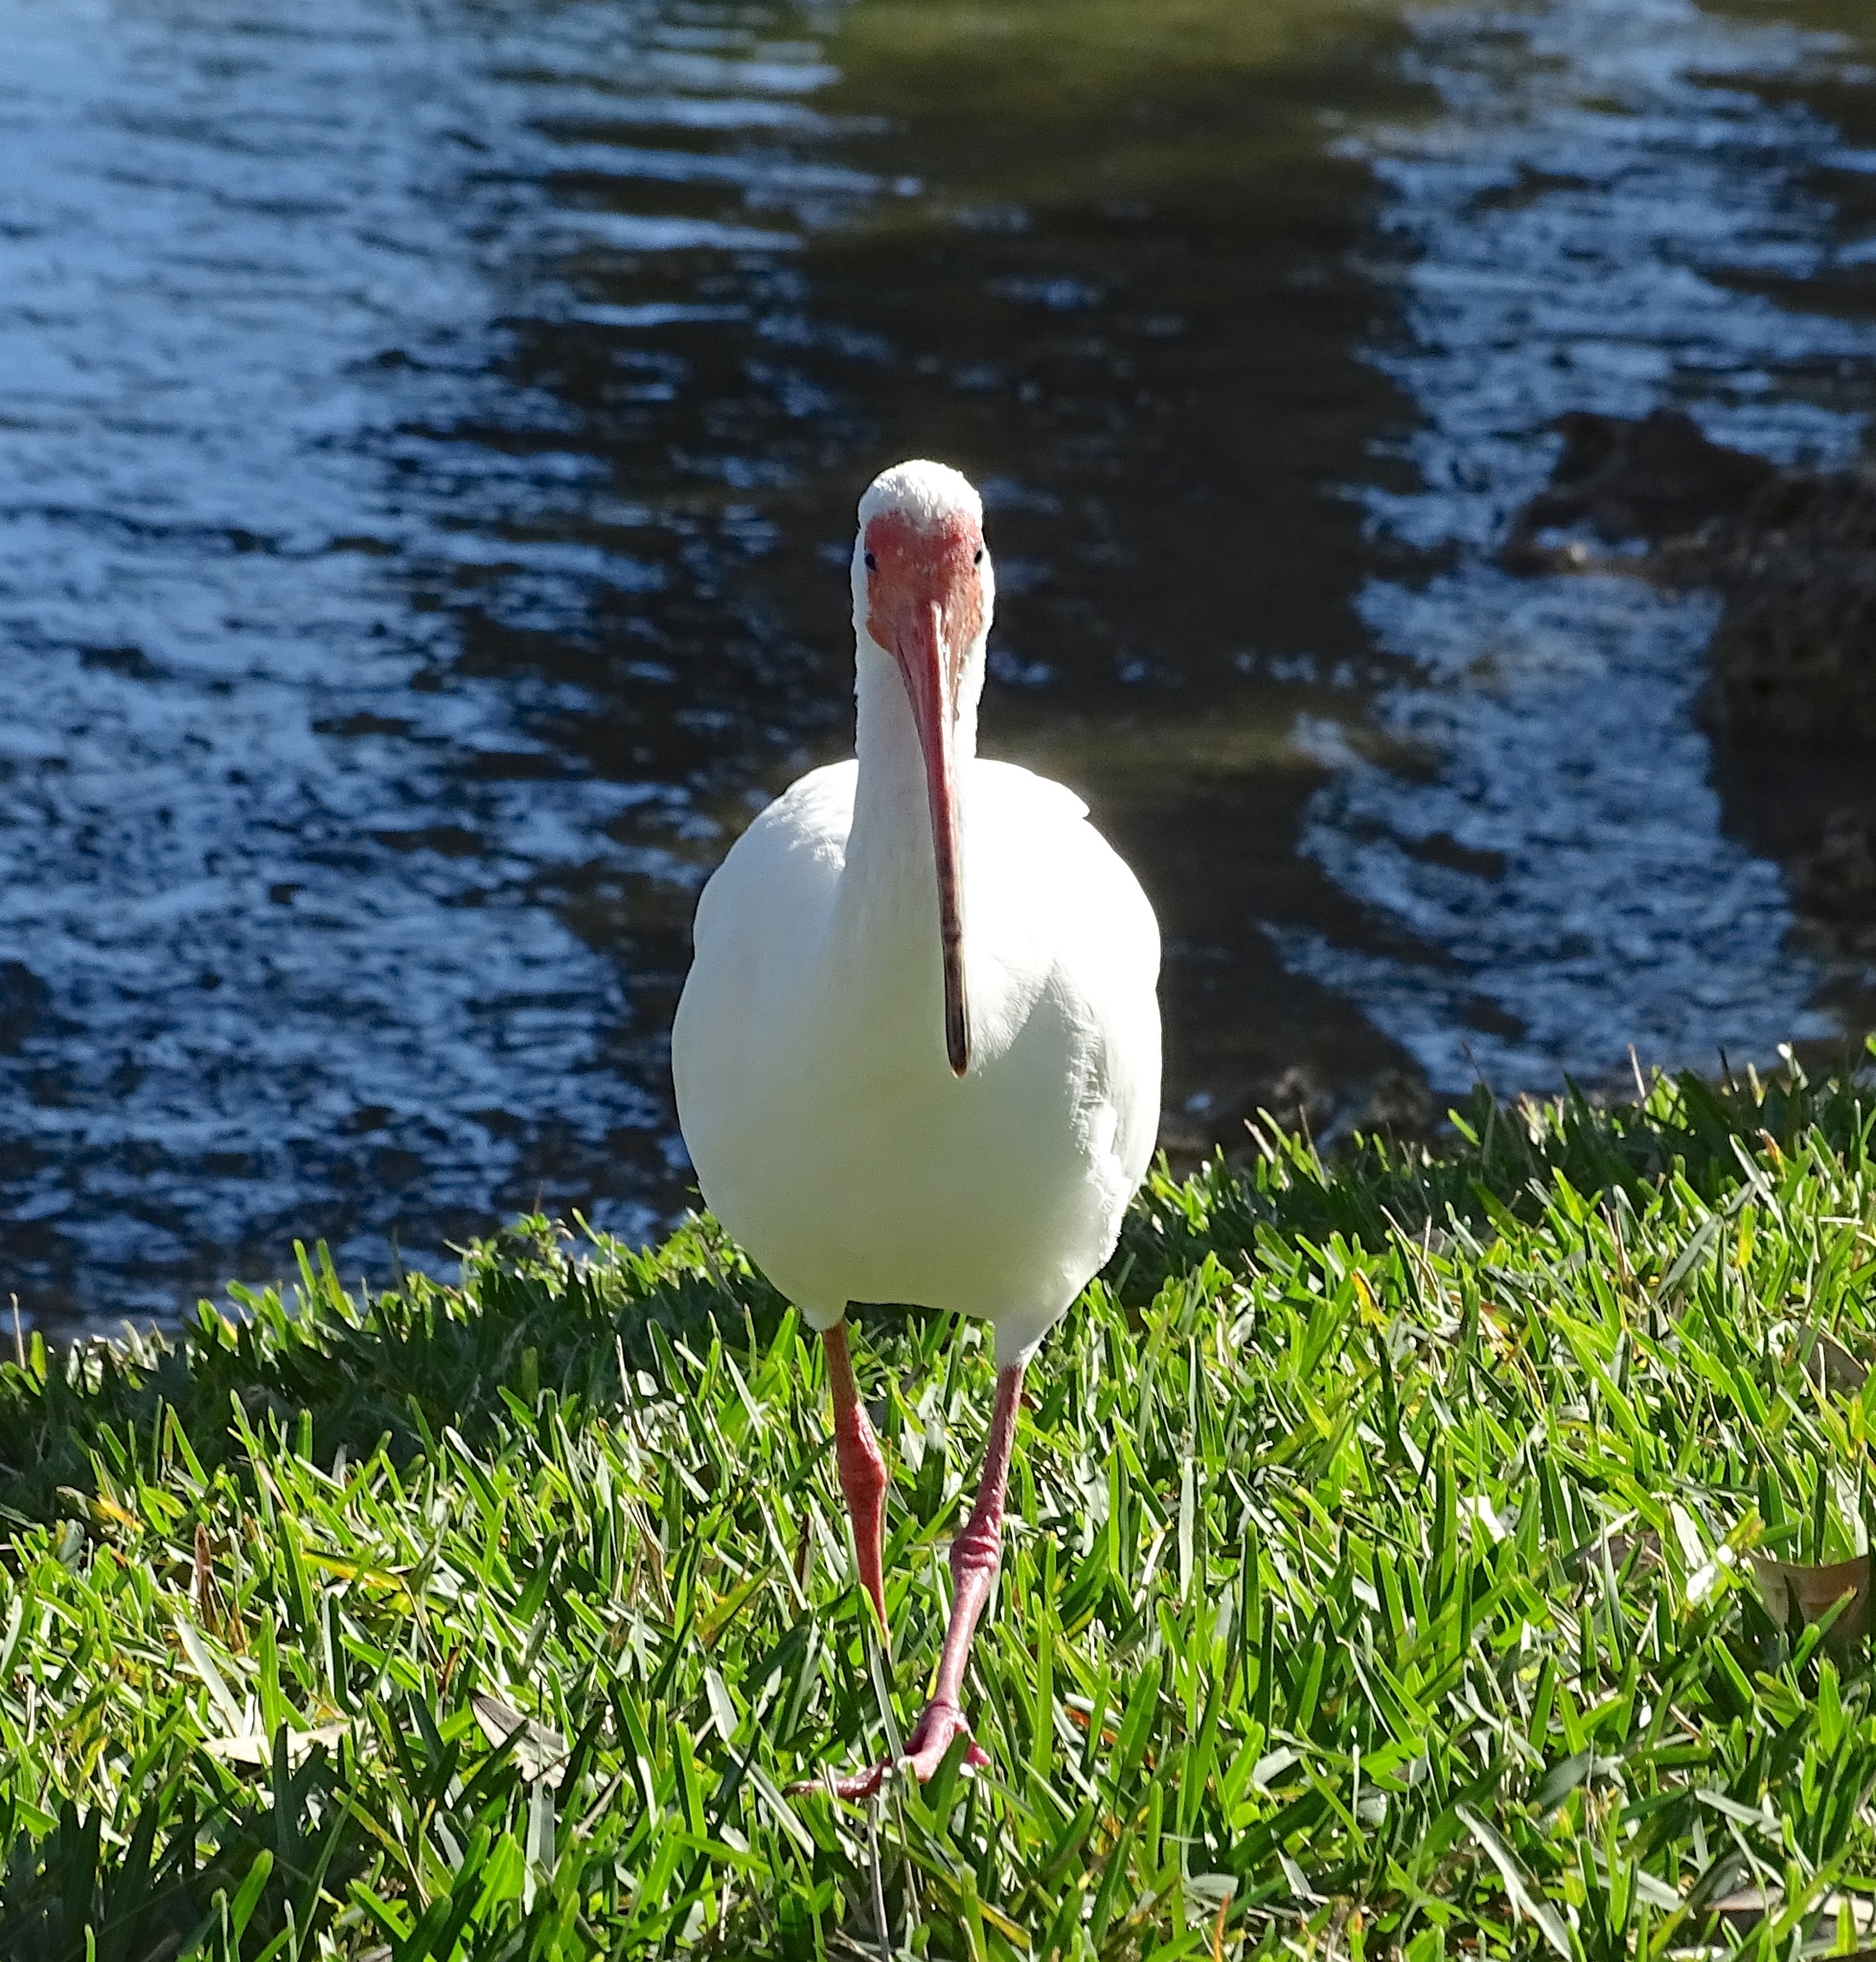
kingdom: Animalia
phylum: Chordata
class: Aves
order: Pelecaniformes
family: Threskiornithidae
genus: Eudocimus
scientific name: Eudocimus albus
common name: White ibis
